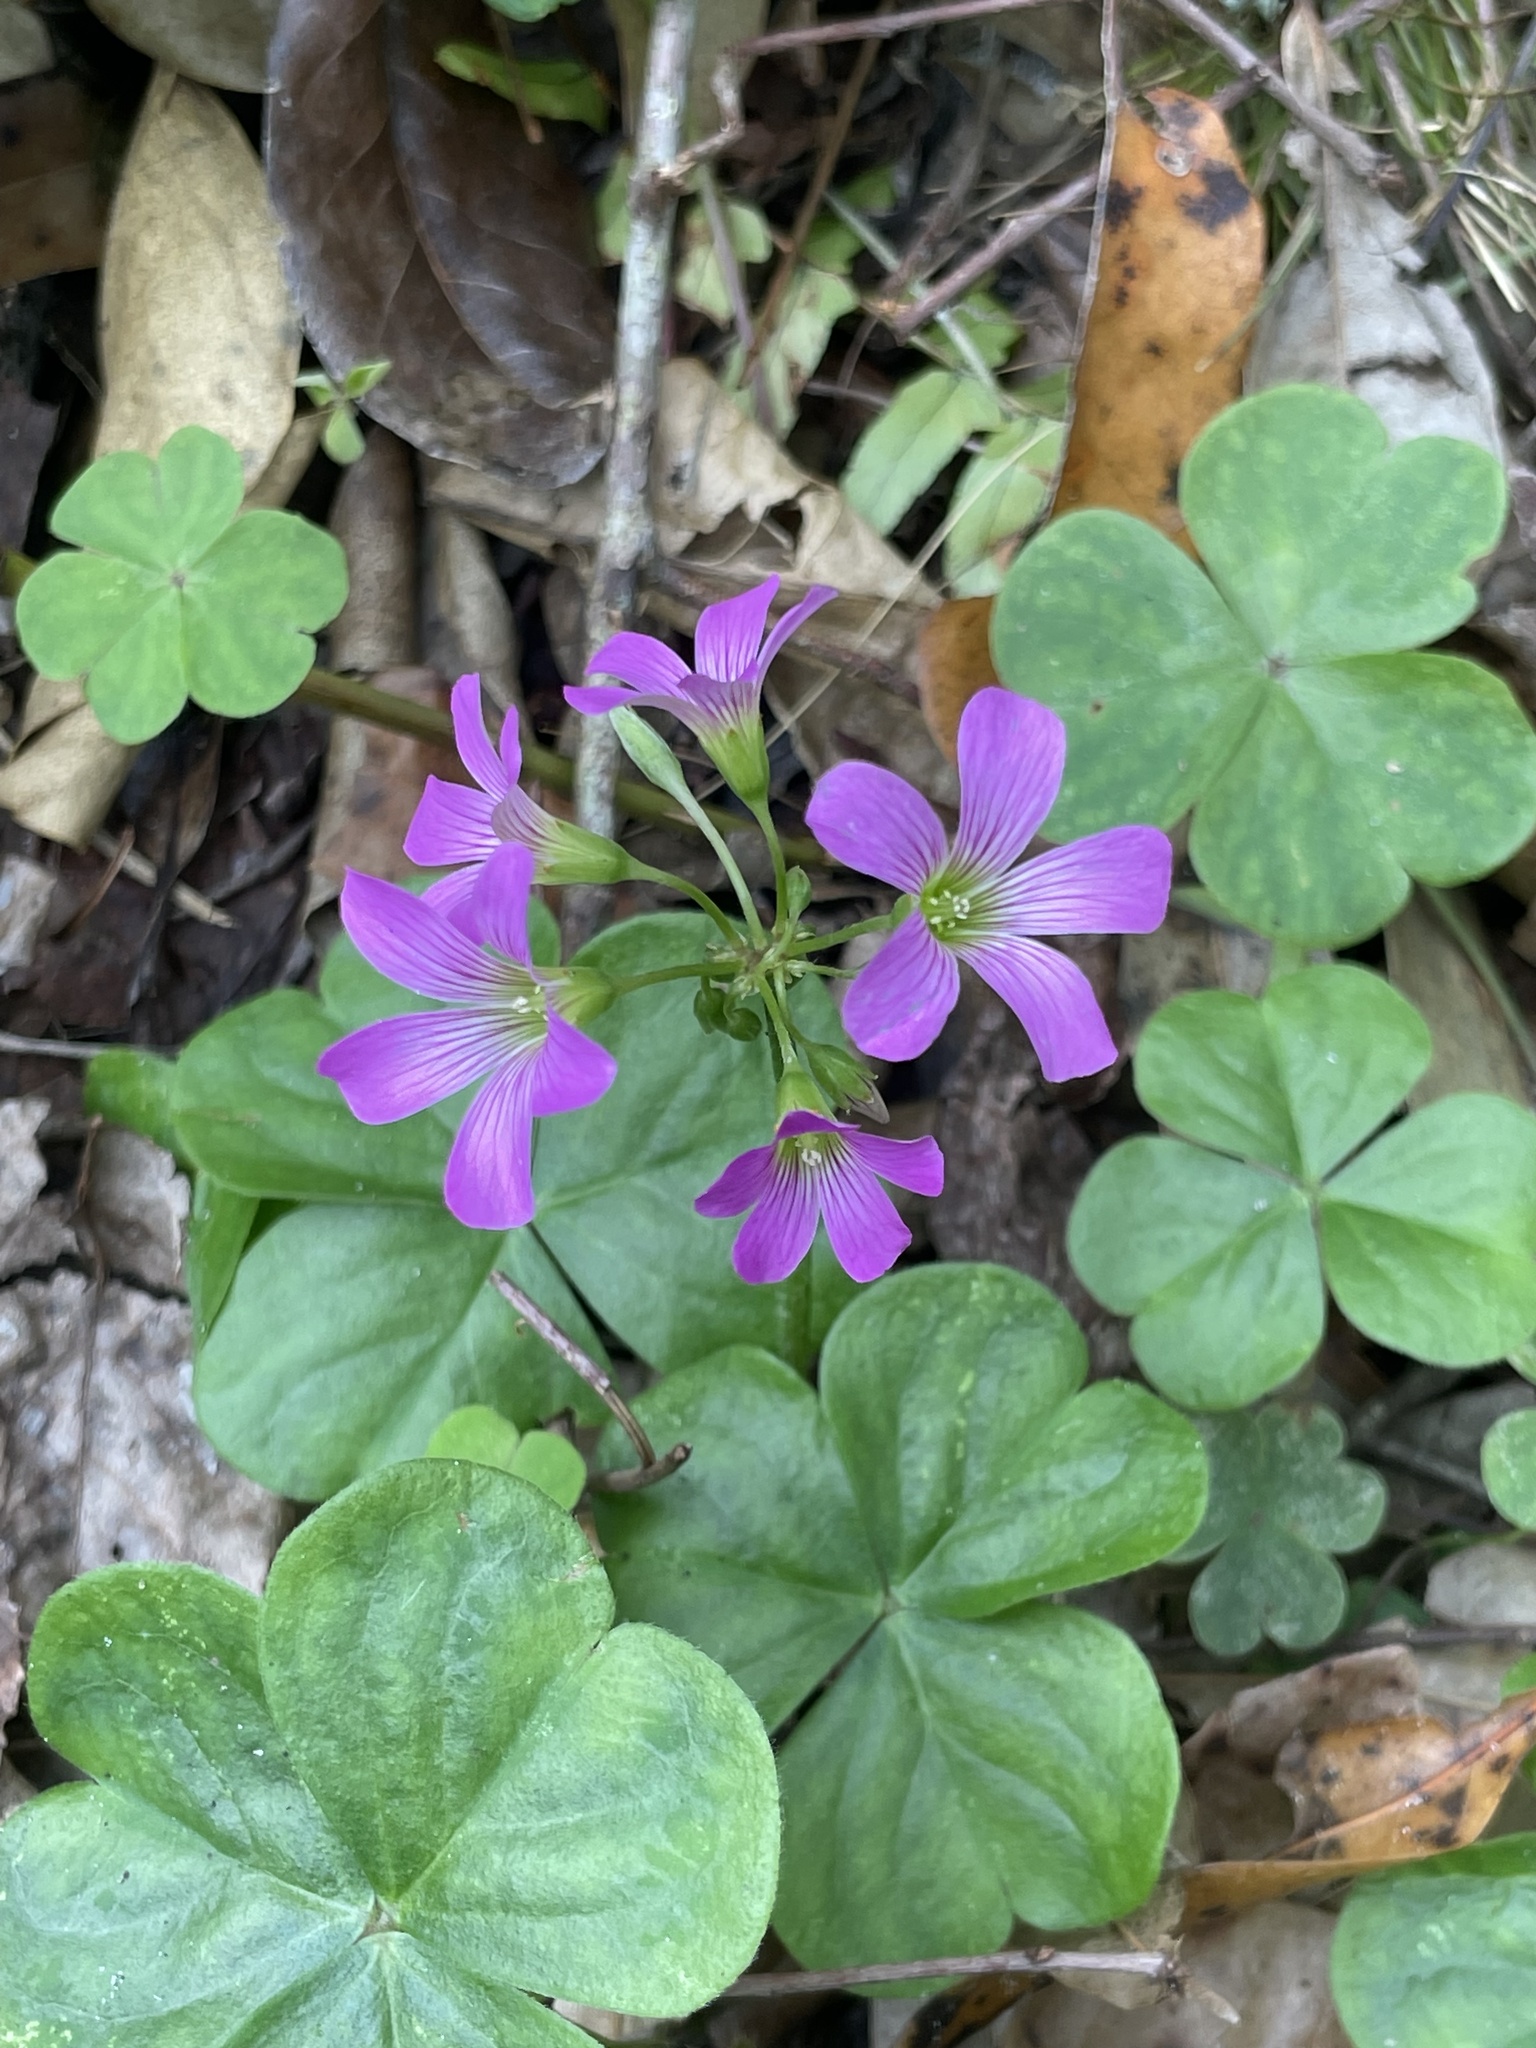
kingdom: Plantae
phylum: Tracheophyta
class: Magnoliopsida
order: Oxalidales
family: Oxalidaceae
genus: Oxalis
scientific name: Oxalis debilis
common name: Large-flowered pink-sorrel
